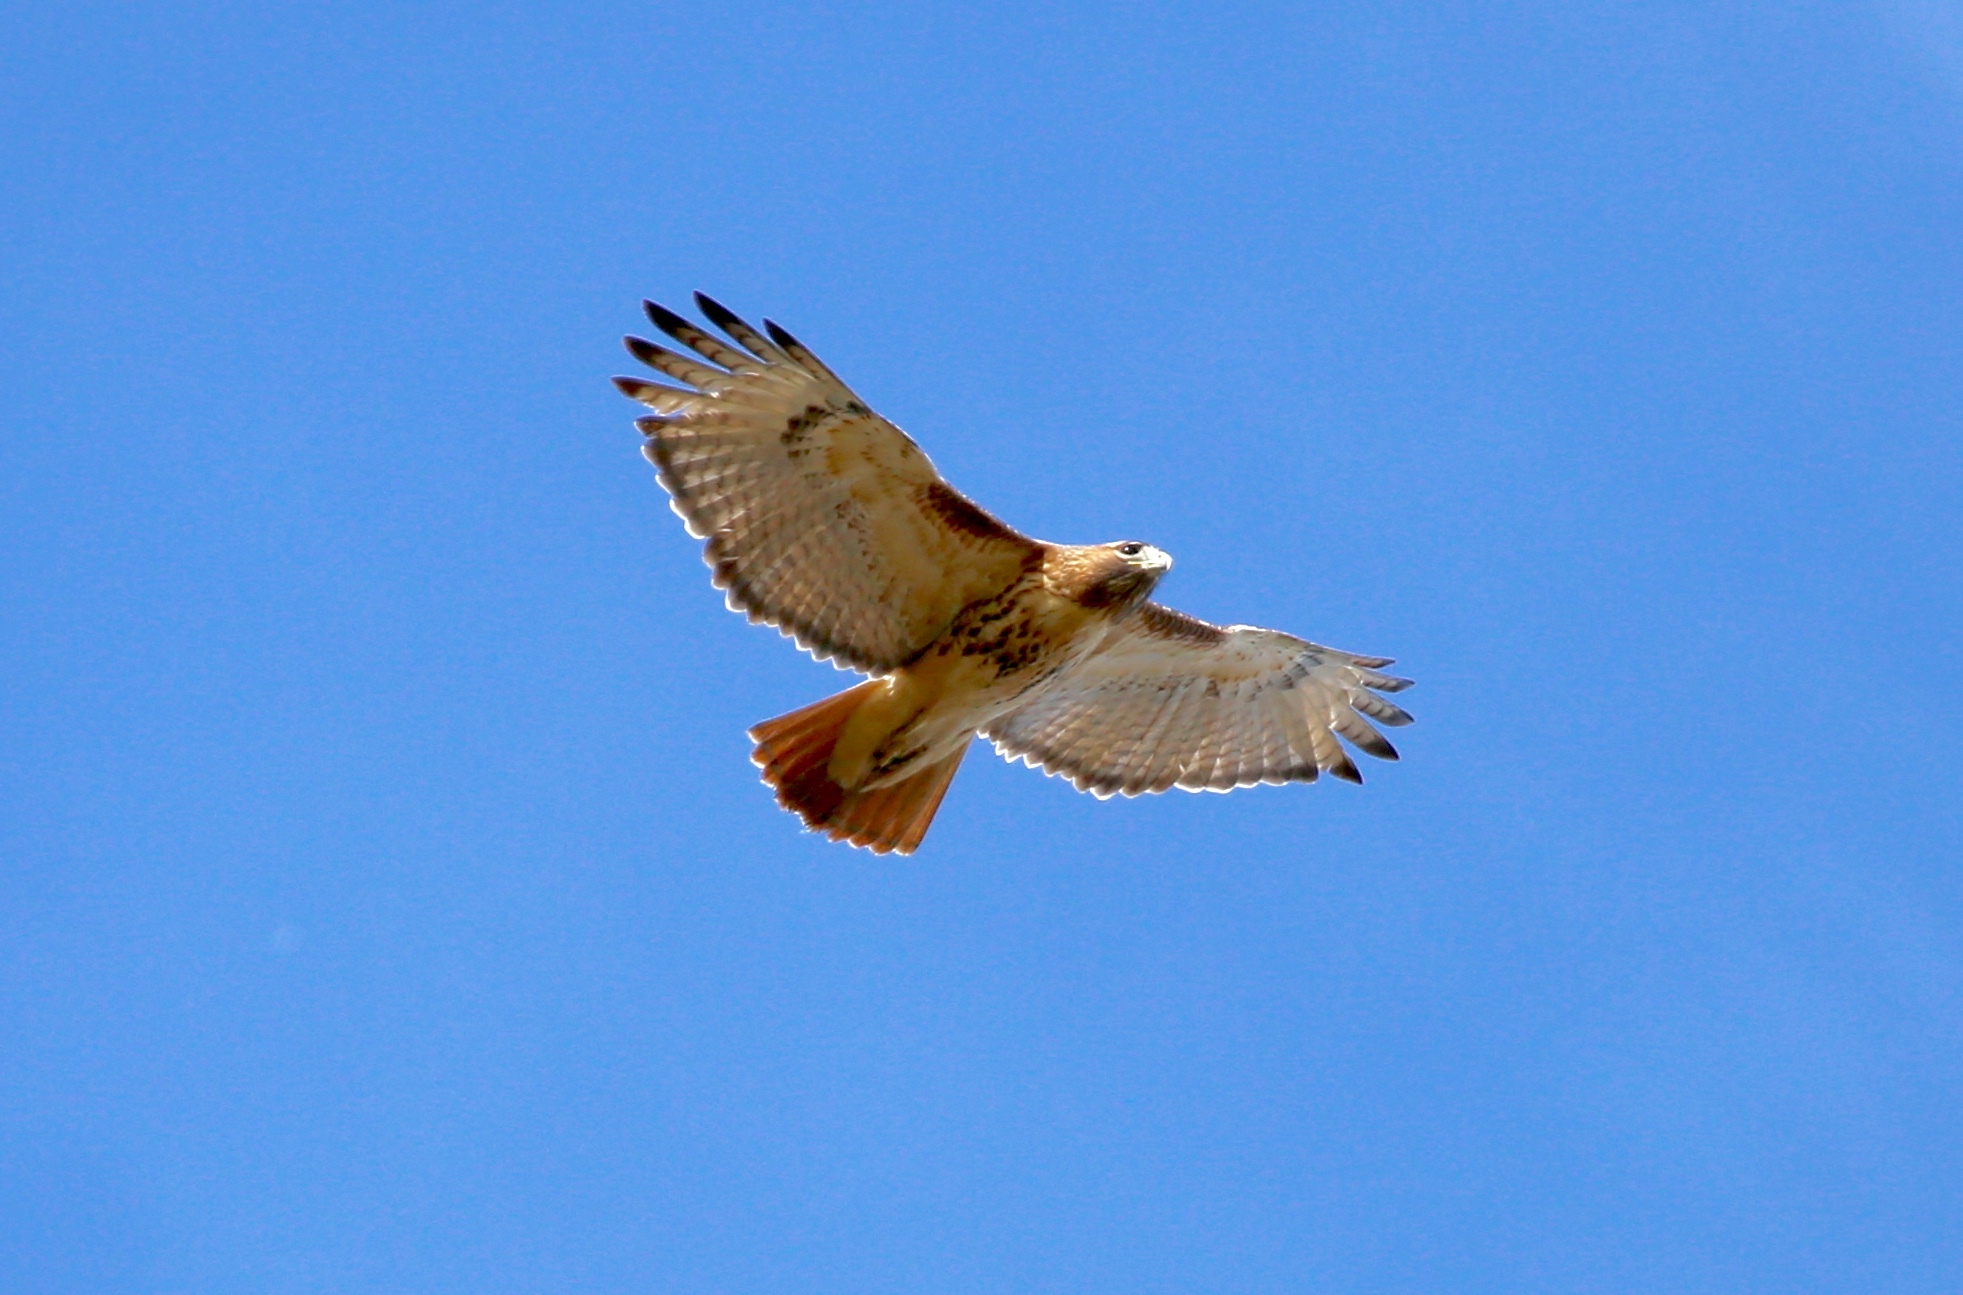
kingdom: Animalia
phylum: Chordata
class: Aves
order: Accipitriformes
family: Accipitridae
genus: Buteo
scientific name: Buteo jamaicensis
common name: Red-tailed hawk
